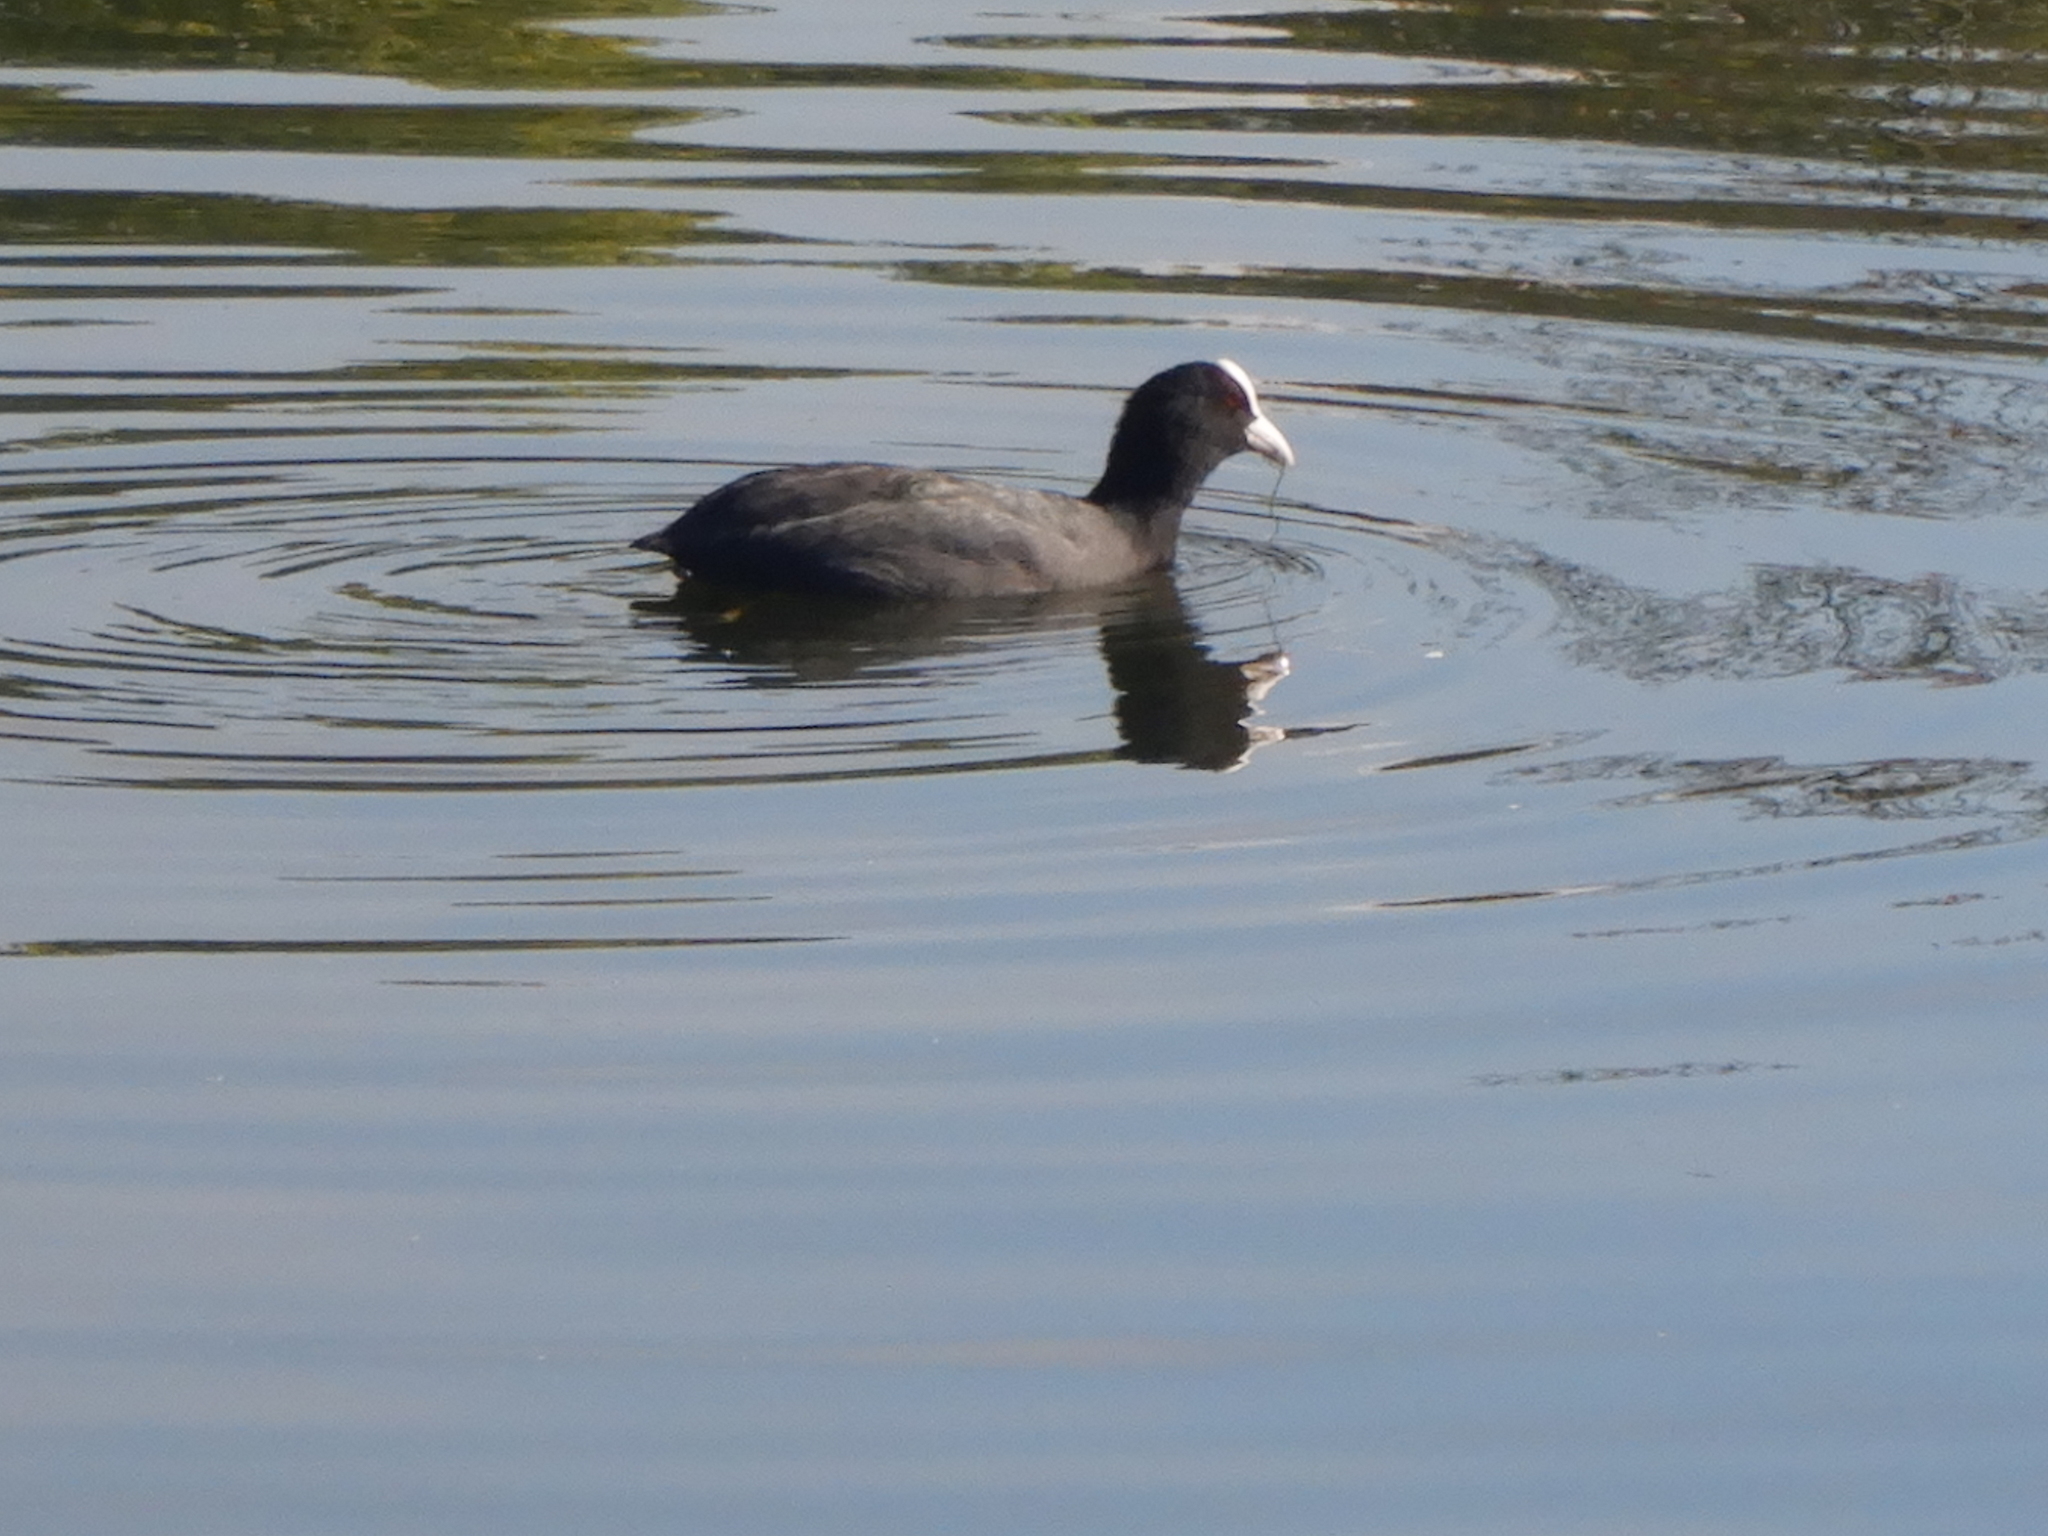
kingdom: Animalia
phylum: Chordata
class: Aves
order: Gruiformes
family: Rallidae
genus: Fulica
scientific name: Fulica atra
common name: Eurasian coot
